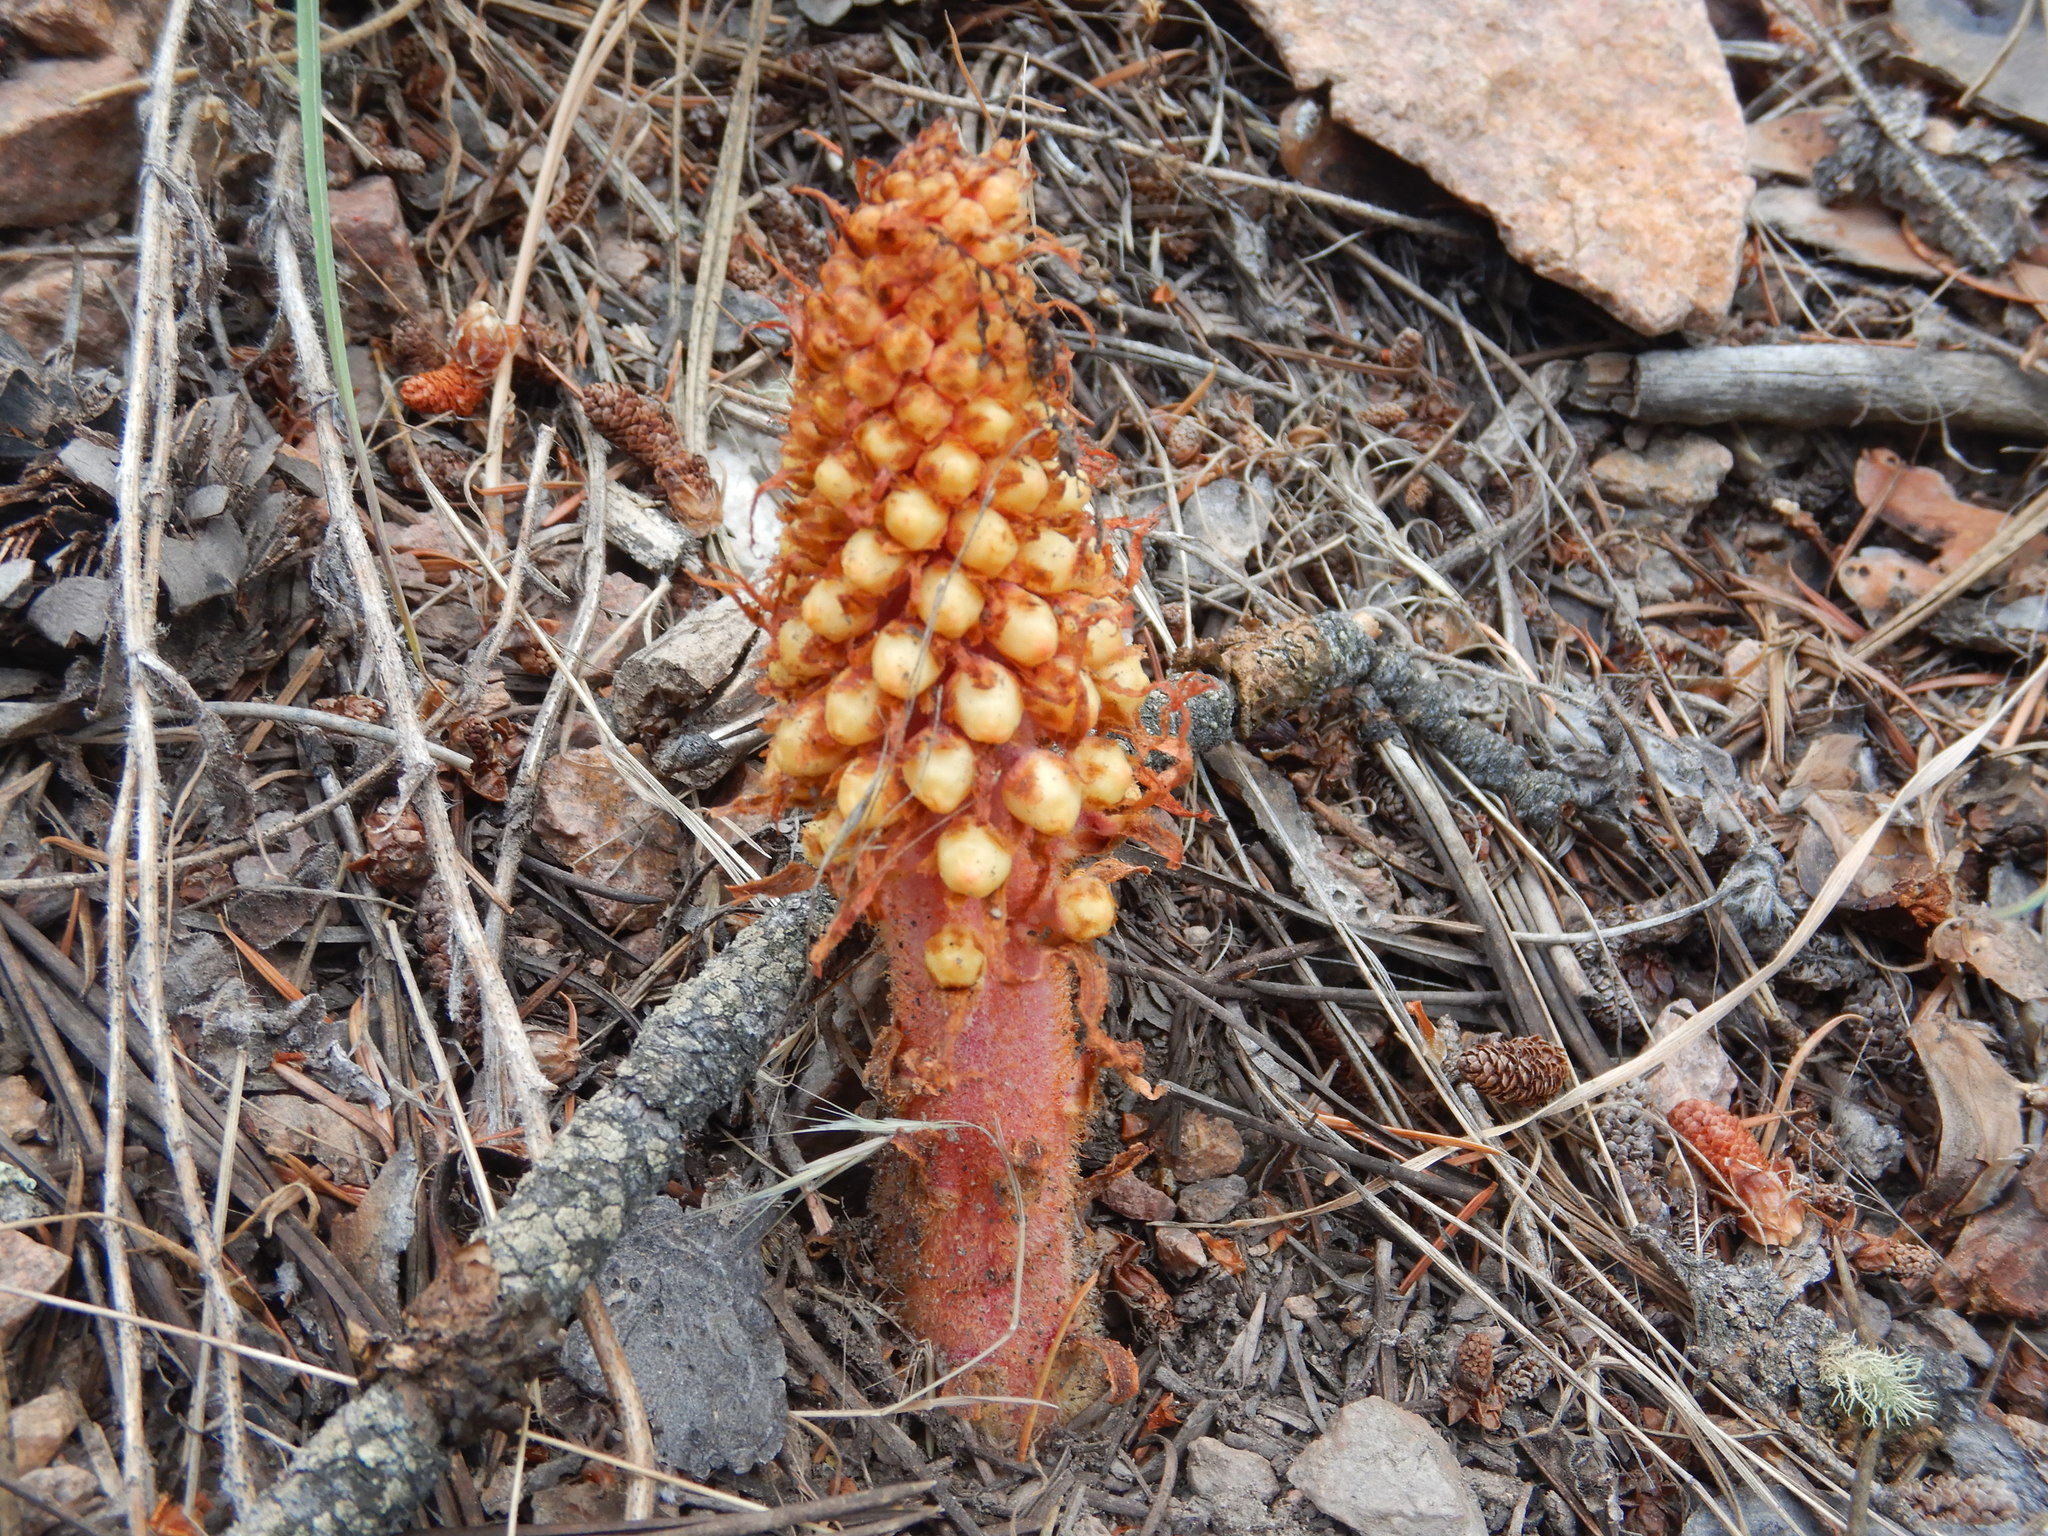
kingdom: Plantae
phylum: Tracheophyta
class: Magnoliopsida
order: Ericales
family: Ericaceae
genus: Pterospora
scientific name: Pterospora andromedea
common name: Giant bird's-nest
